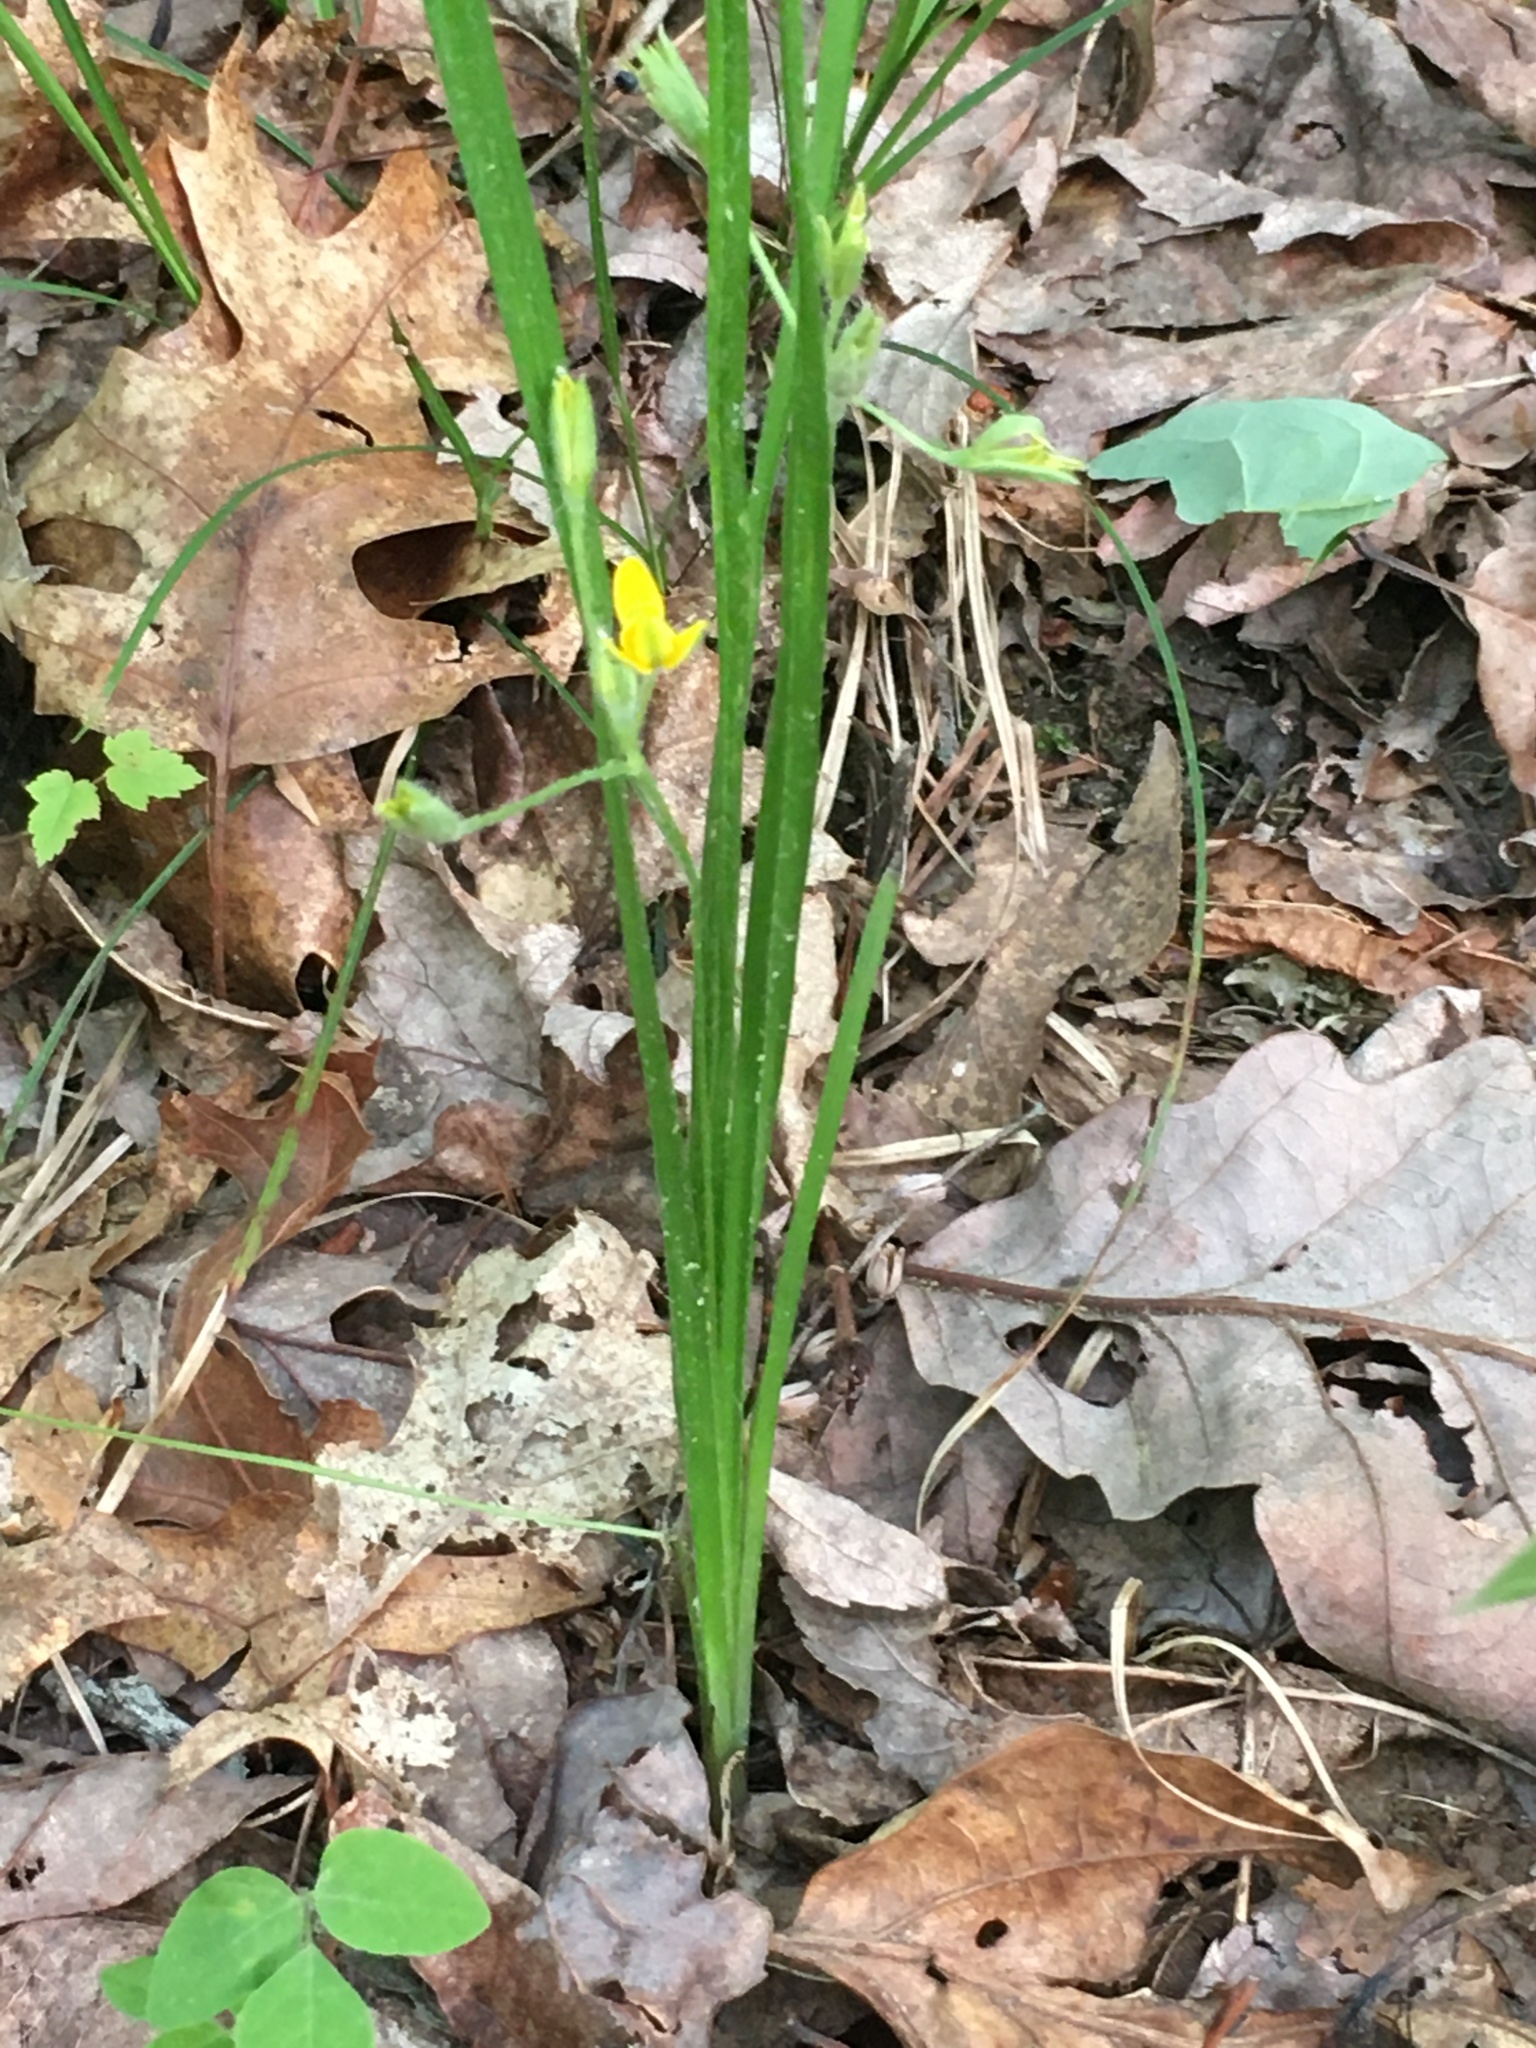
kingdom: Plantae
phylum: Tracheophyta
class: Liliopsida
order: Asparagales
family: Hypoxidaceae
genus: Hypoxis
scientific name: Hypoxis hirsuta
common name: Common goldstar
